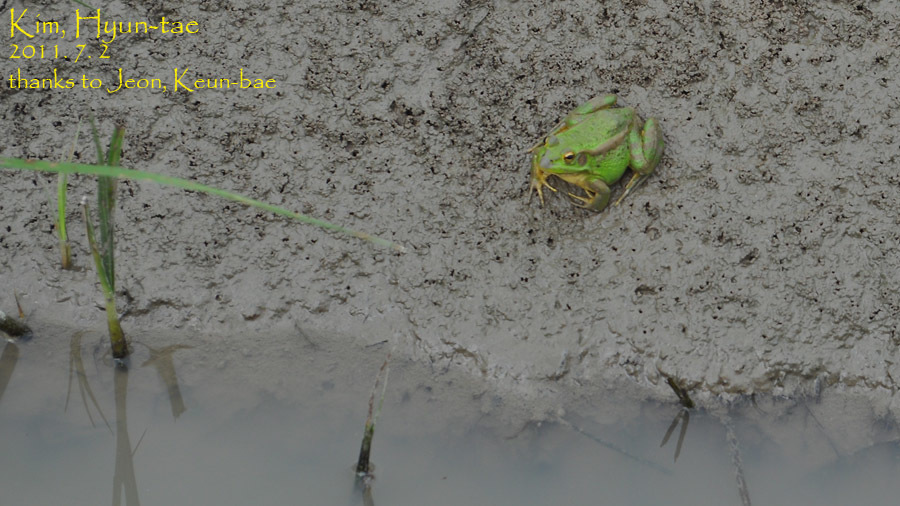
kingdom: Animalia
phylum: Chordata
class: Amphibia
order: Anura
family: Ranidae
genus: Pelophylax
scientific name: Pelophylax chosenicus
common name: Gold-spotted pond frog
